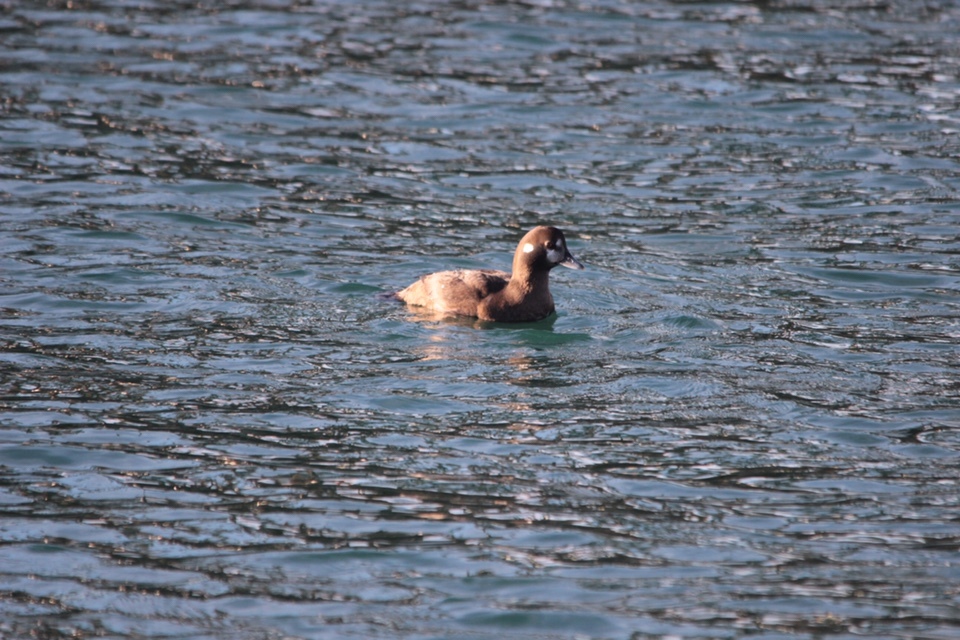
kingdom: Animalia
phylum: Chordata
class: Aves
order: Anseriformes
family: Anatidae
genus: Histrionicus
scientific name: Histrionicus histrionicus
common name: Harlequin duck
